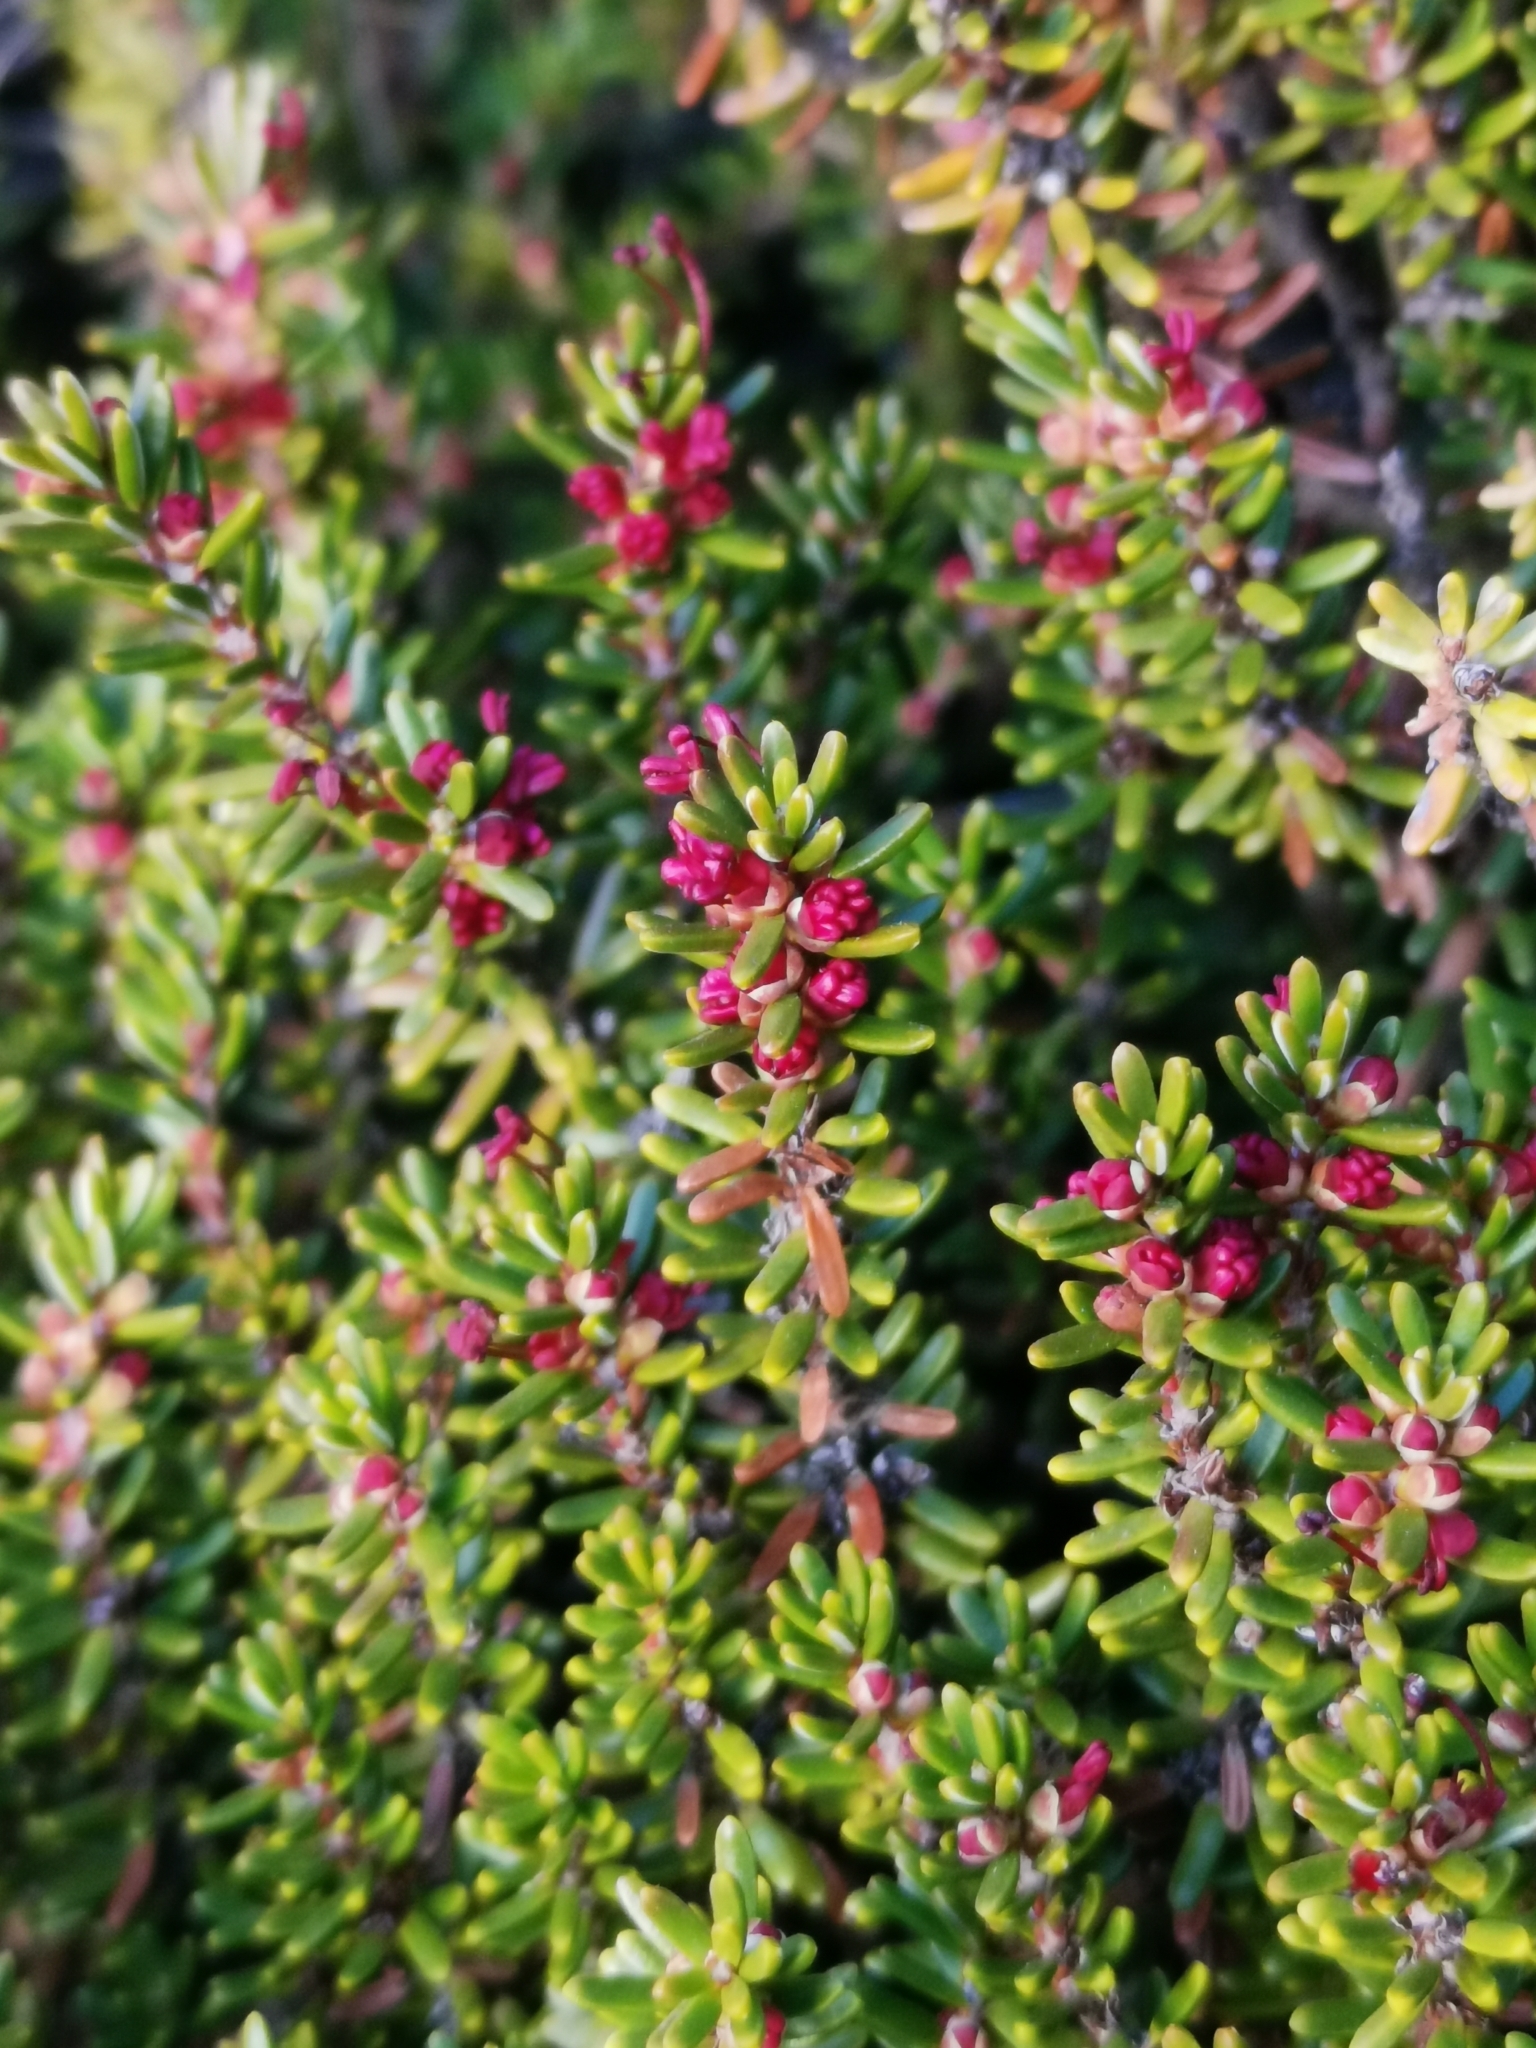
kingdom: Plantae
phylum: Tracheophyta
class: Magnoliopsida
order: Ericales
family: Ericaceae
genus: Empetrum
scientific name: Empetrum rubrum
